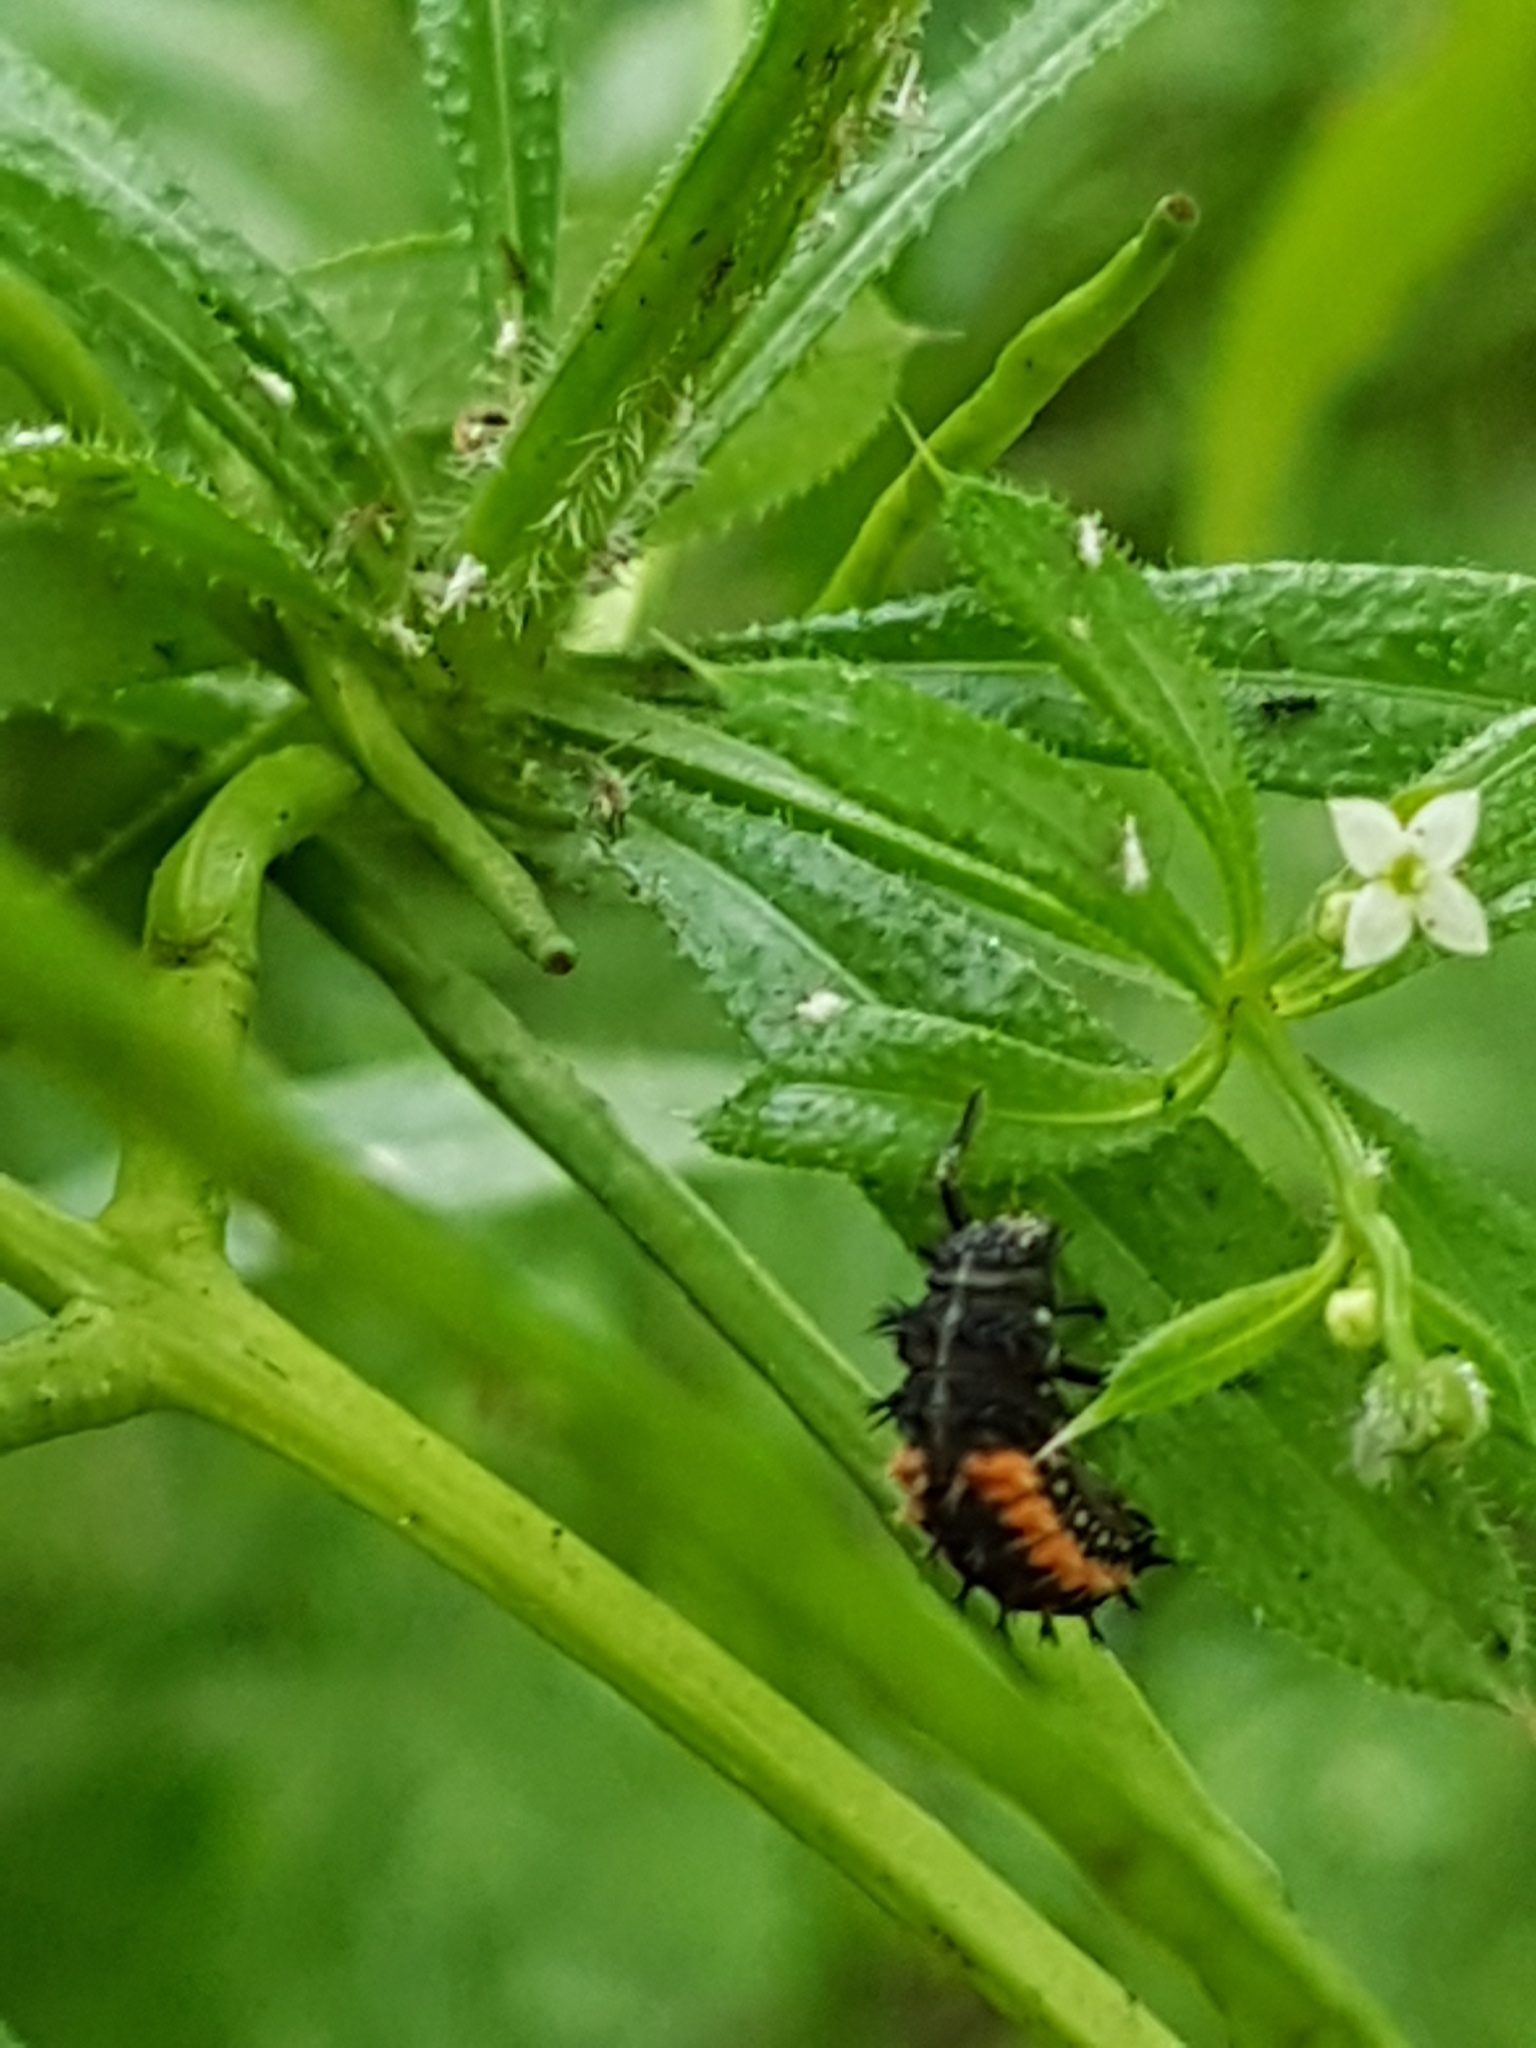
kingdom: Animalia
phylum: Arthropoda
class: Insecta
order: Coleoptera
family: Coccinellidae
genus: Harmonia
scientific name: Harmonia axyridis
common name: Harlequin ladybird
